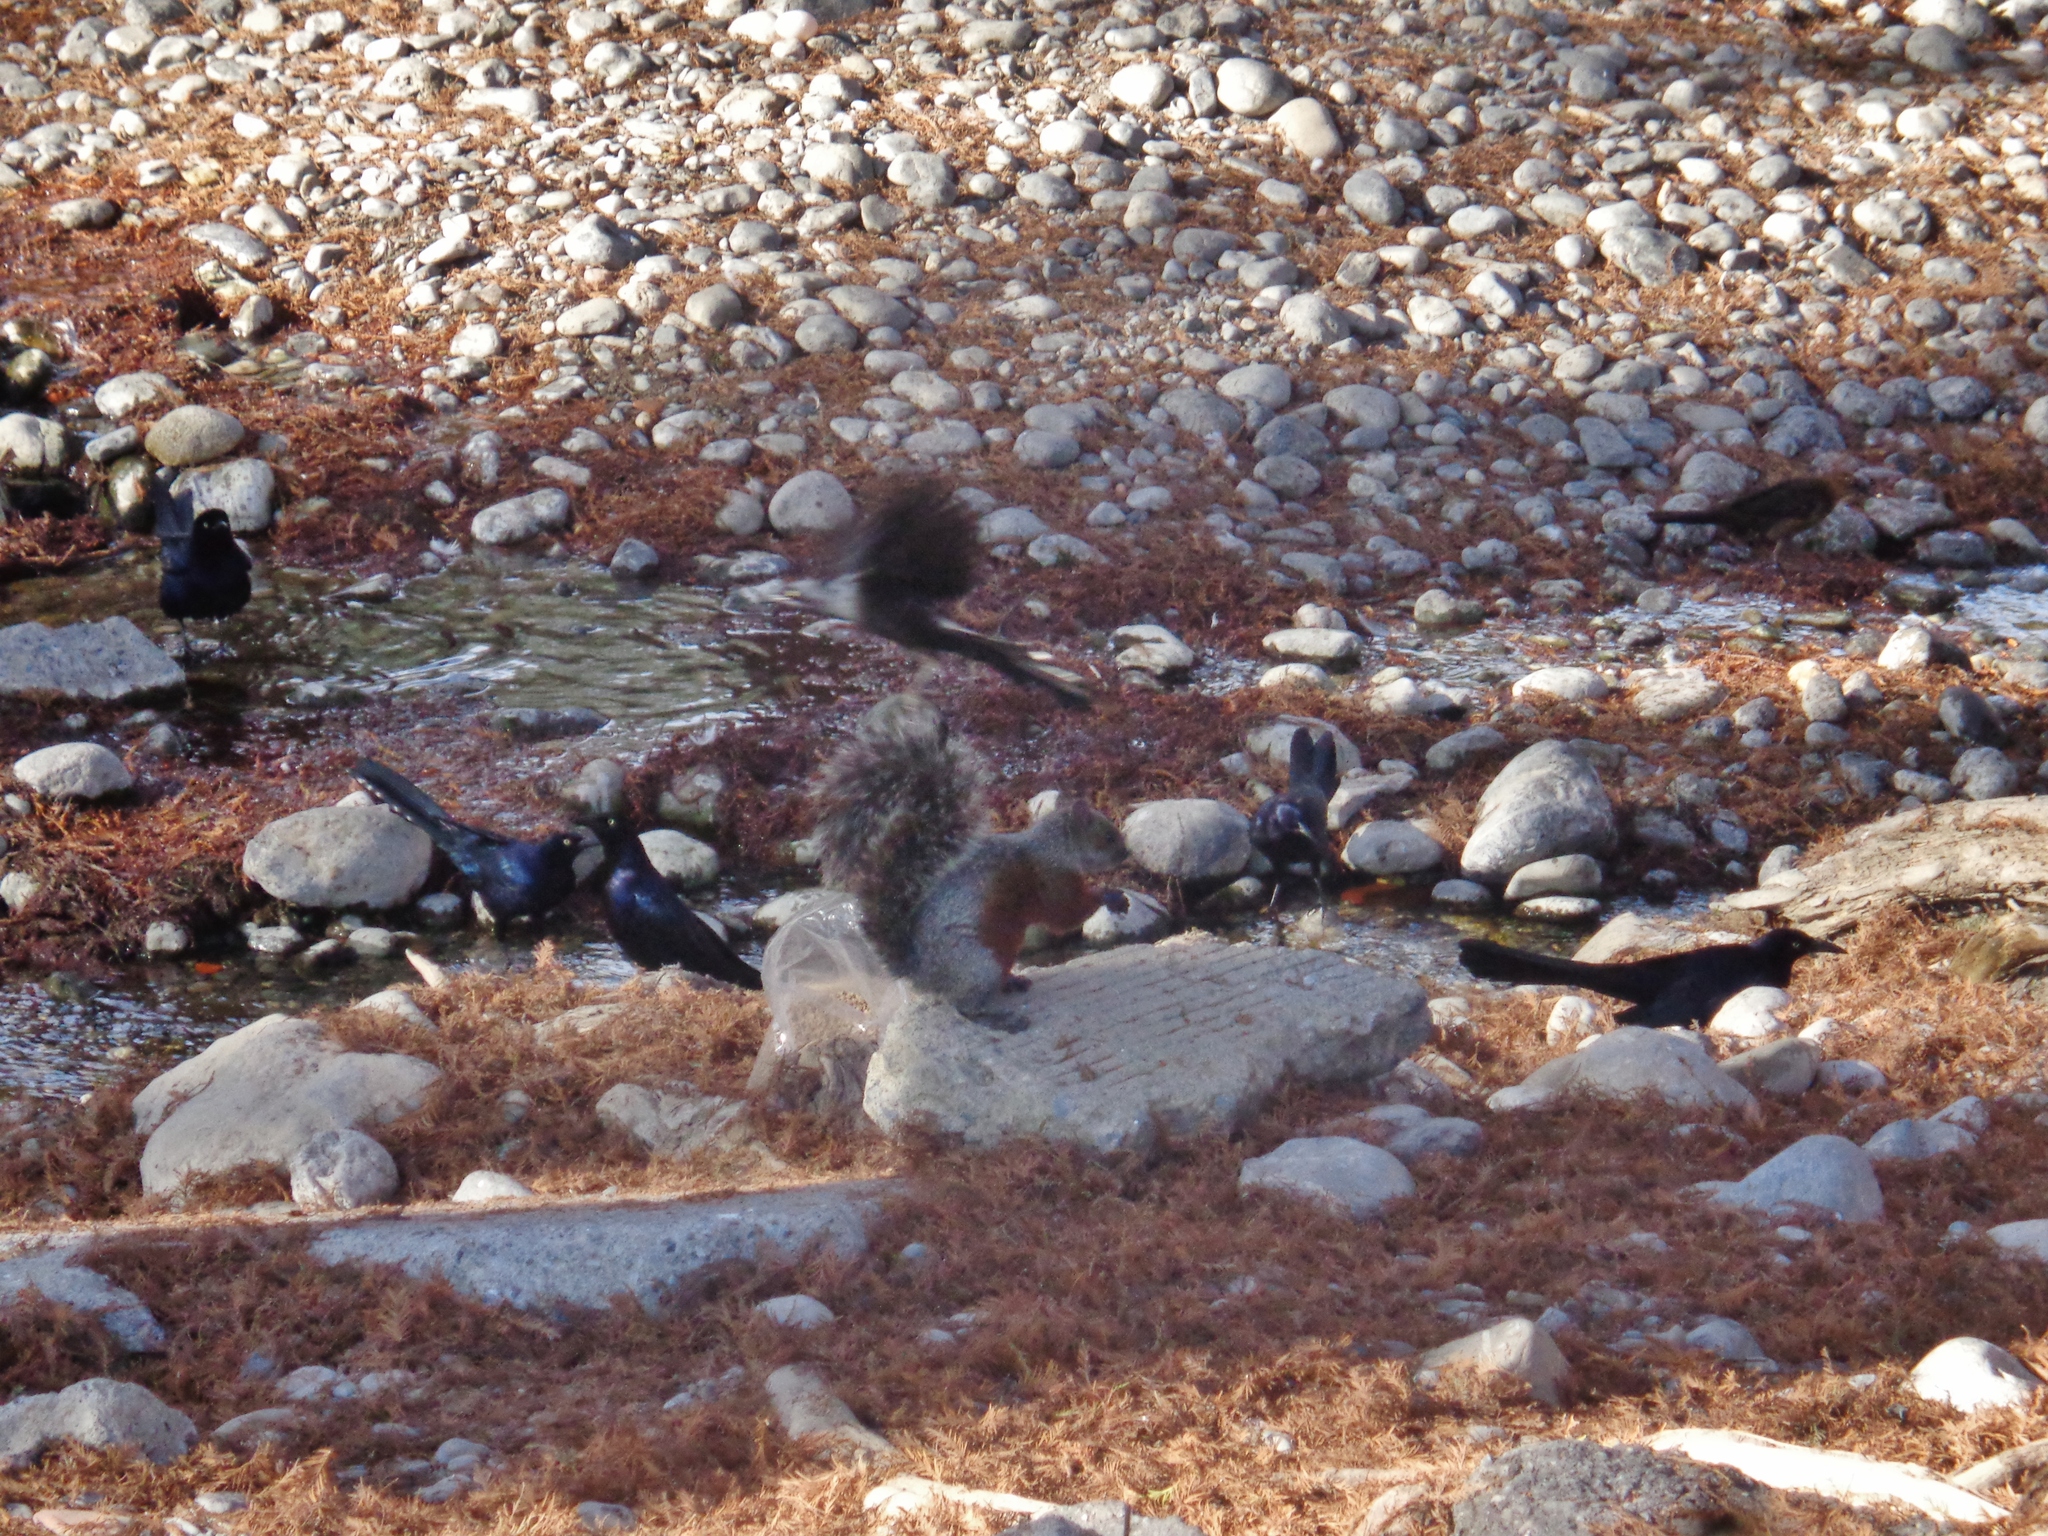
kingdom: Animalia
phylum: Chordata
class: Mammalia
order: Rodentia
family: Sciuridae
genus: Sciurus
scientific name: Sciurus aureogaster
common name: Red-bellied squirrel
